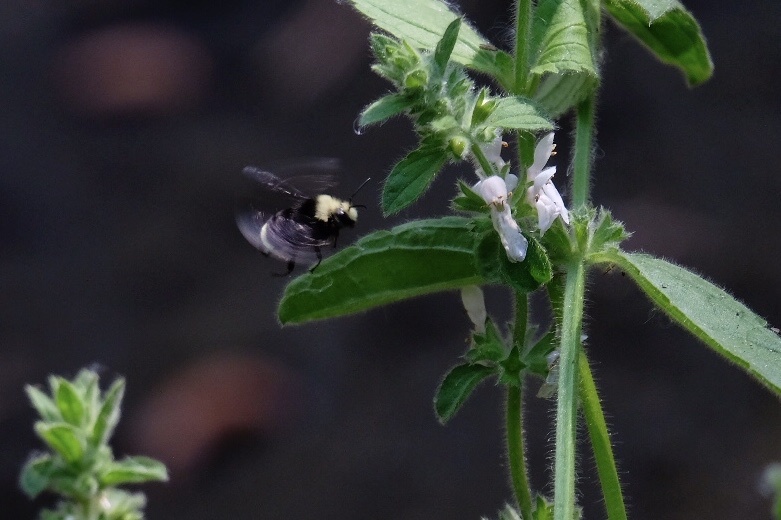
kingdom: Animalia
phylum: Arthropoda
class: Insecta
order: Hymenoptera
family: Apidae
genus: Bombus
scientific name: Bombus vosnesenskii
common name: Vosnesensky bumble bee
